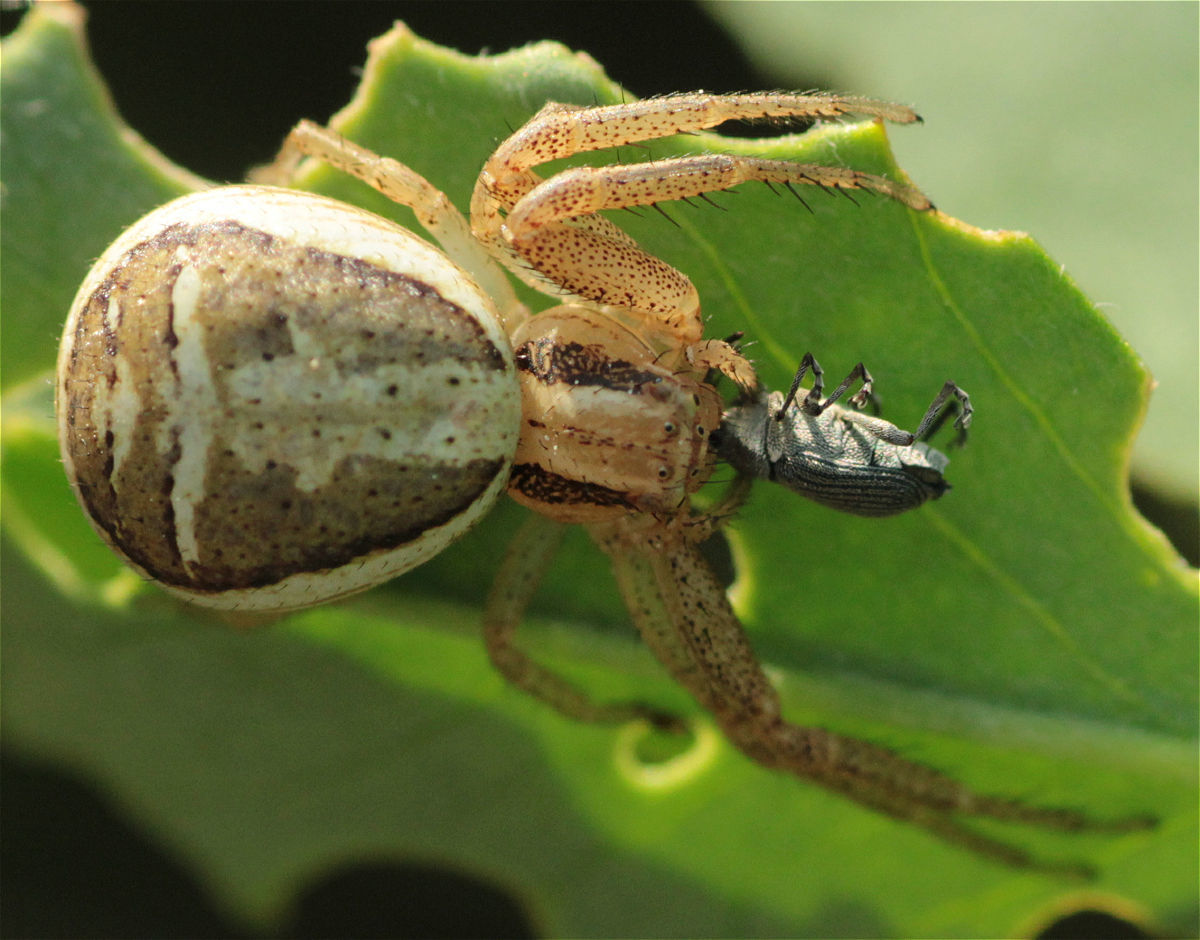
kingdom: Animalia
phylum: Arthropoda
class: Arachnida
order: Araneae
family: Thomisidae
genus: Xysticus
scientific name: Xysticus ulmi
